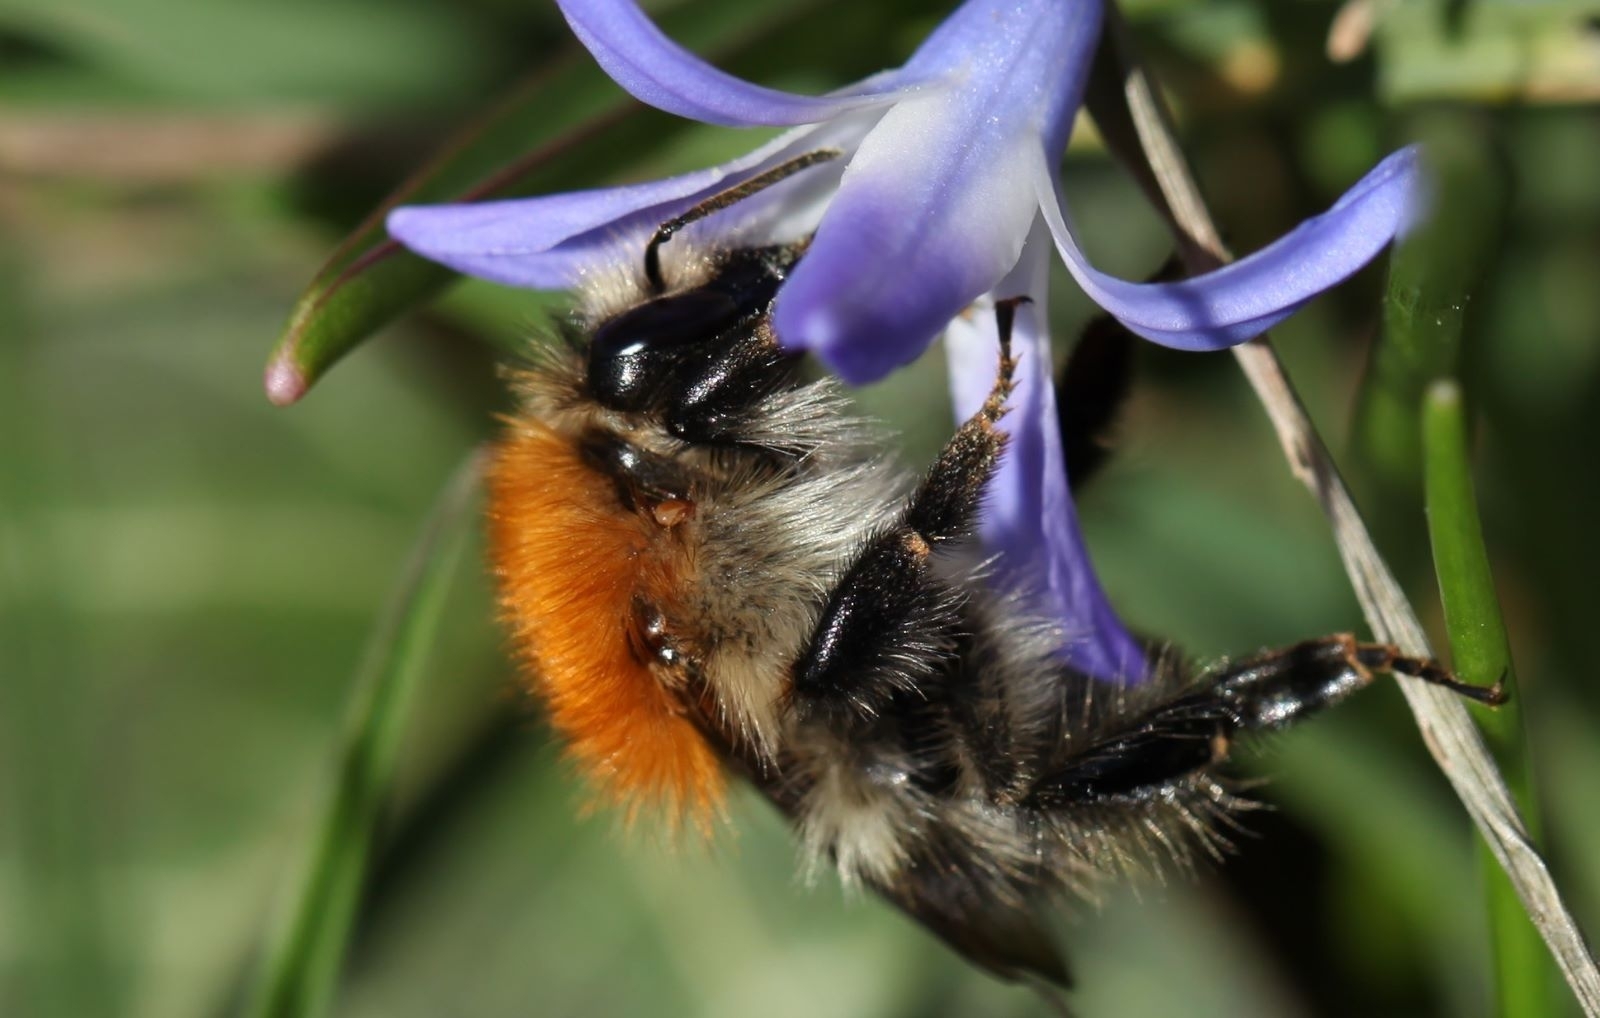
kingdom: Animalia
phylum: Arthropoda
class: Insecta
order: Hymenoptera
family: Apidae
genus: Bombus
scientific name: Bombus pascuorum
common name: Common carder bee
